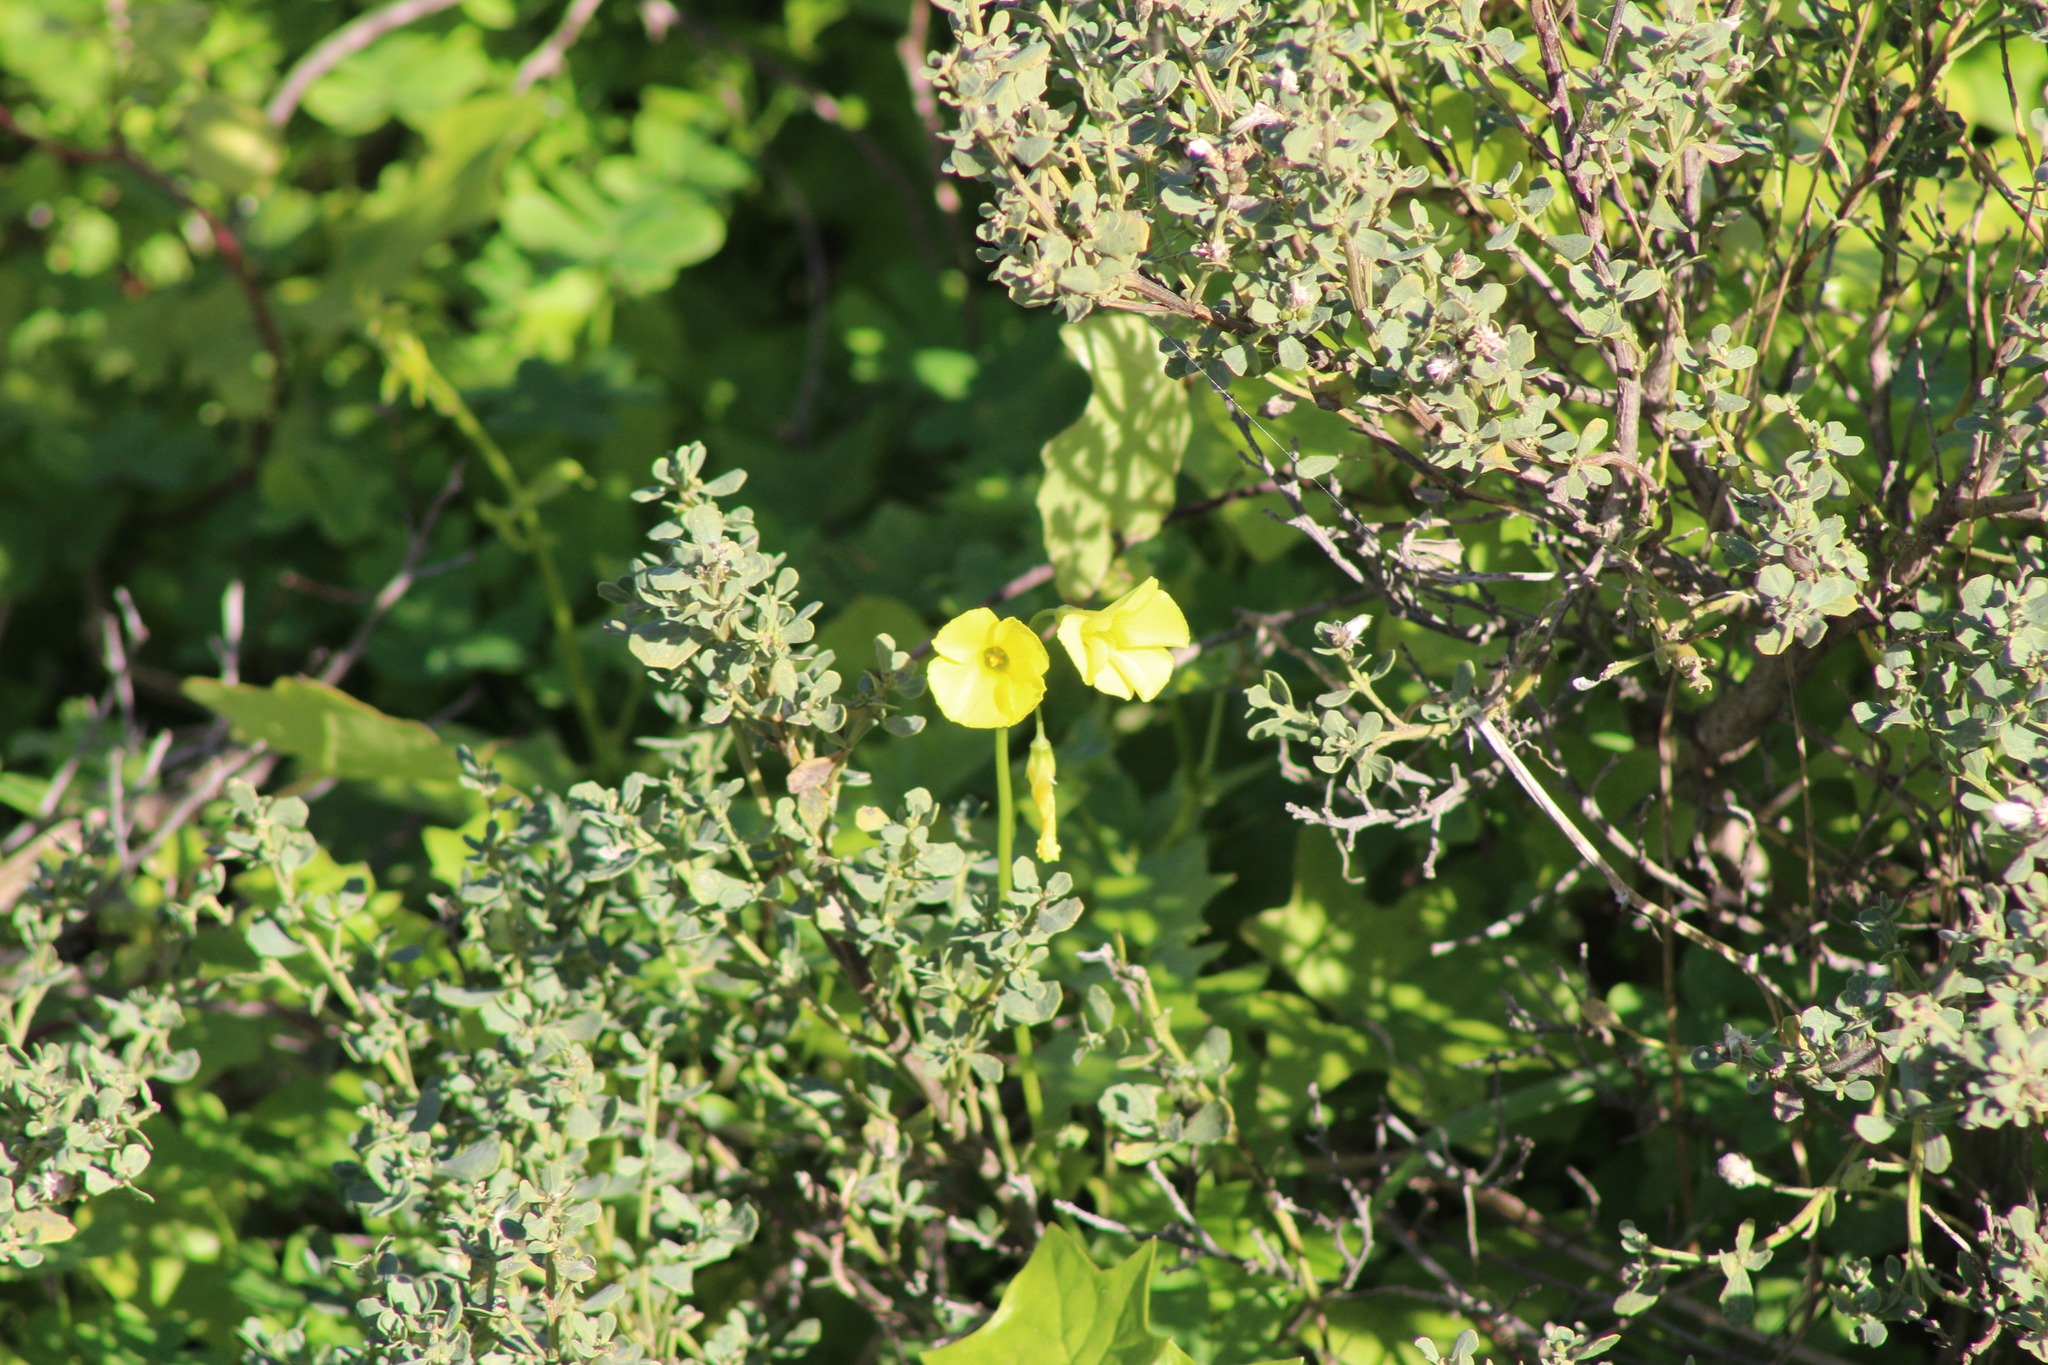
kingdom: Plantae
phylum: Tracheophyta
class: Magnoliopsida
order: Oxalidales
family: Oxalidaceae
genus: Oxalis
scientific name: Oxalis pes-caprae
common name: Bermuda-buttercup
